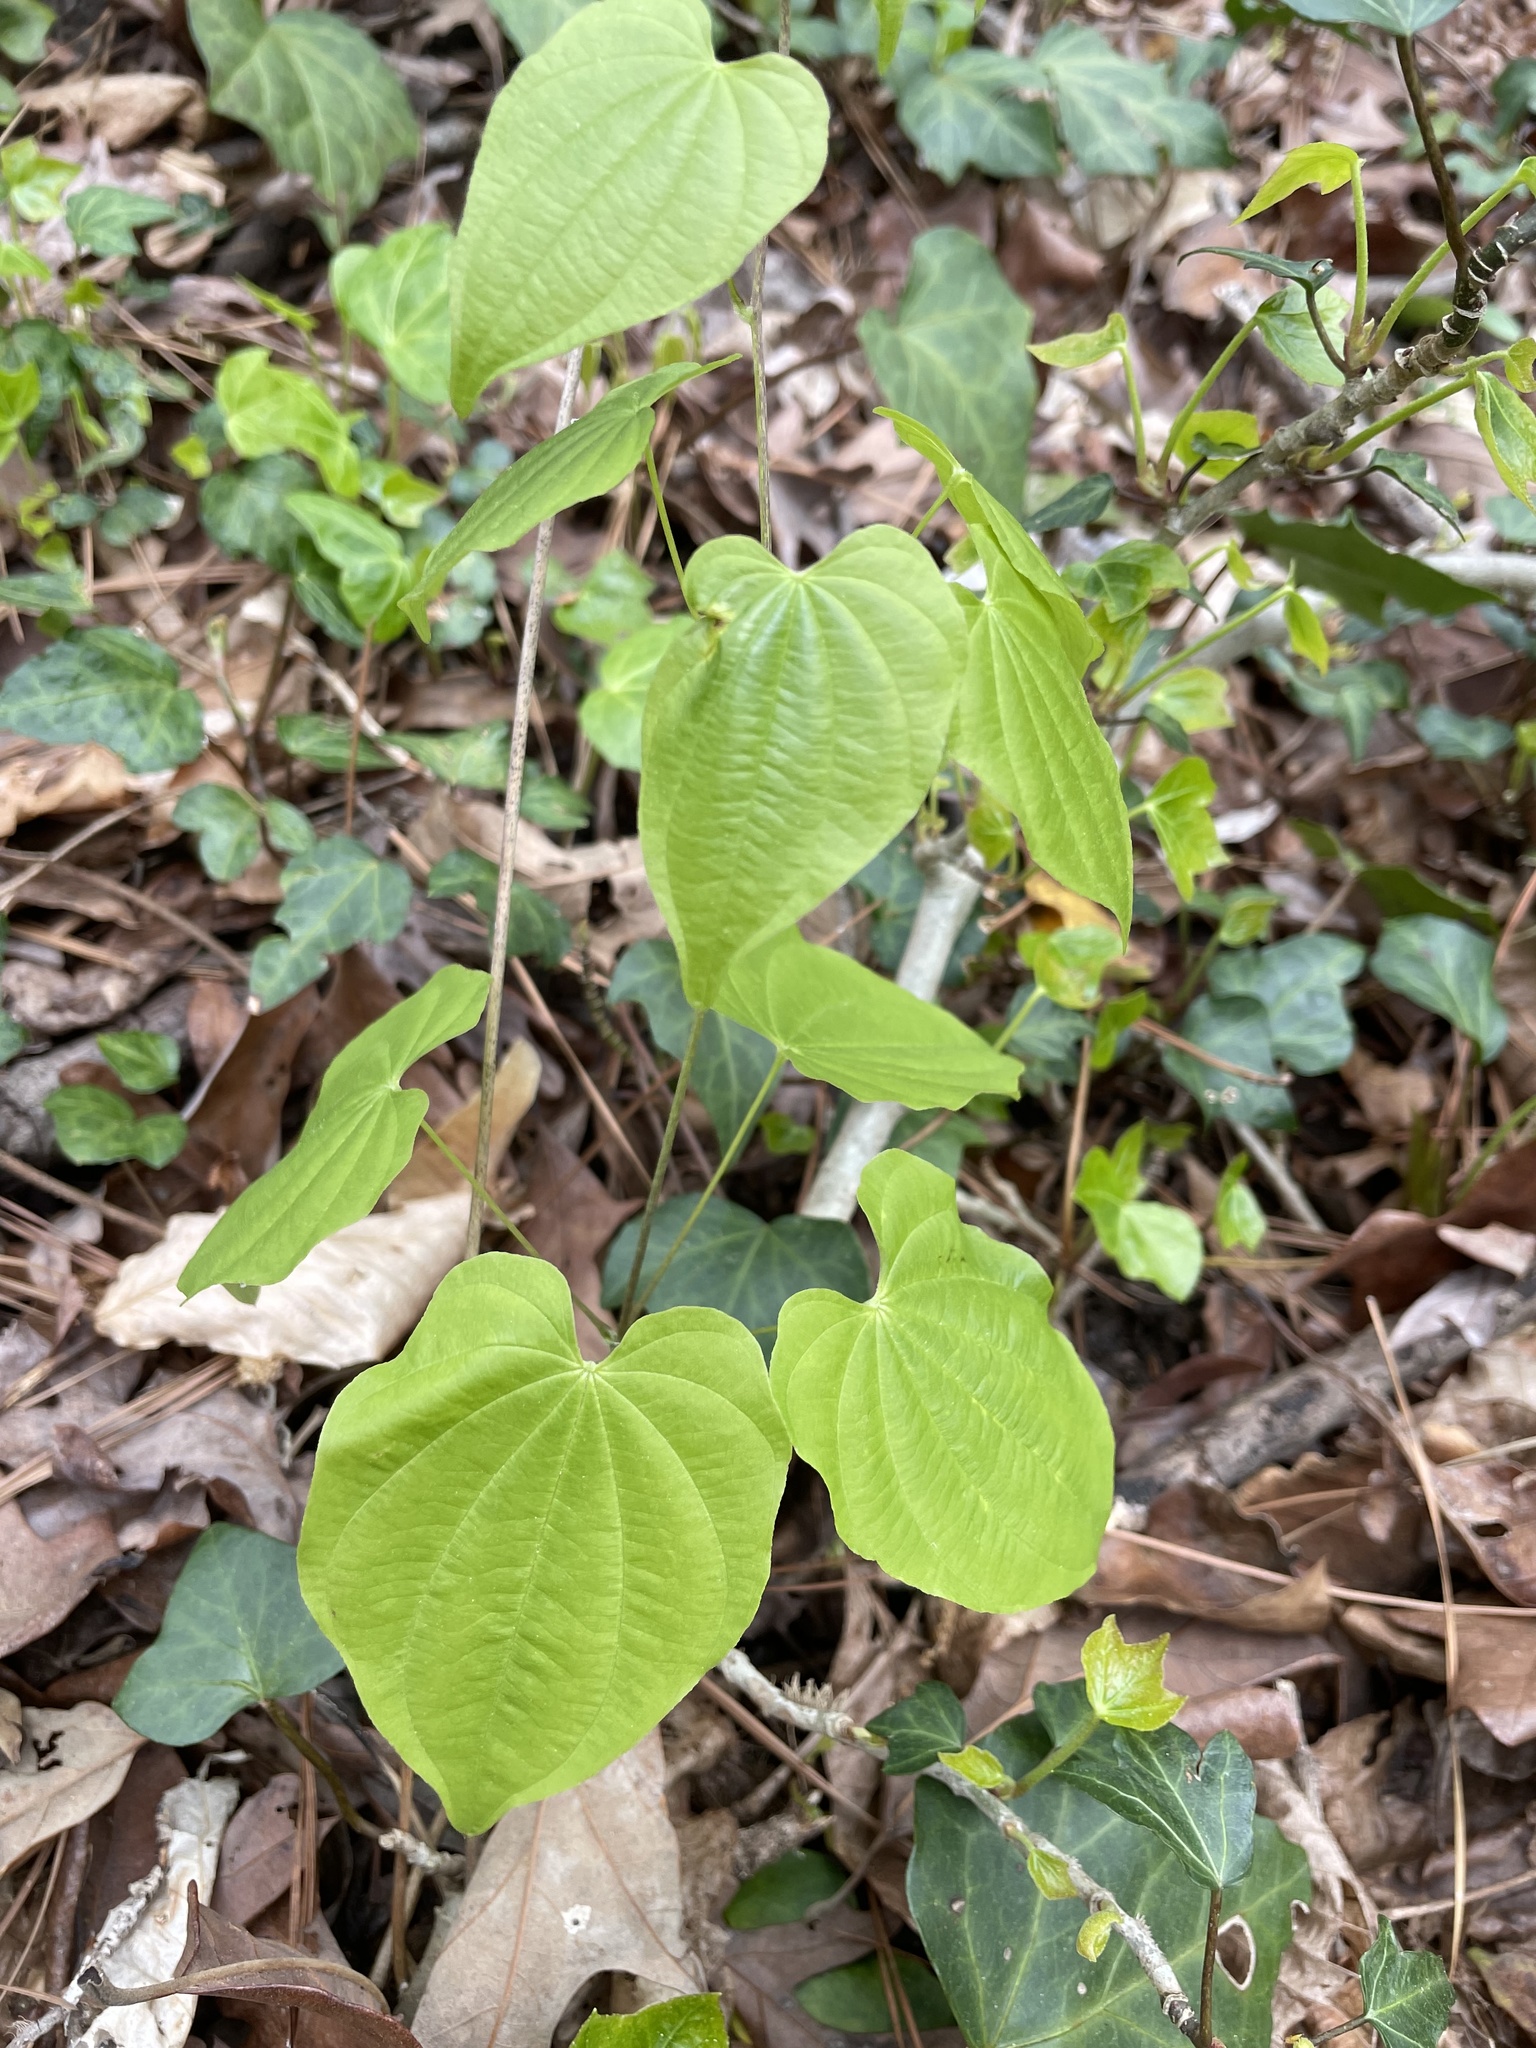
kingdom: Plantae
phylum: Tracheophyta
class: Liliopsida
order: Dioscoreales
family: Dioscoreaceae
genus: Dioscorea
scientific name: Dioscorea villosa
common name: Wild yam
